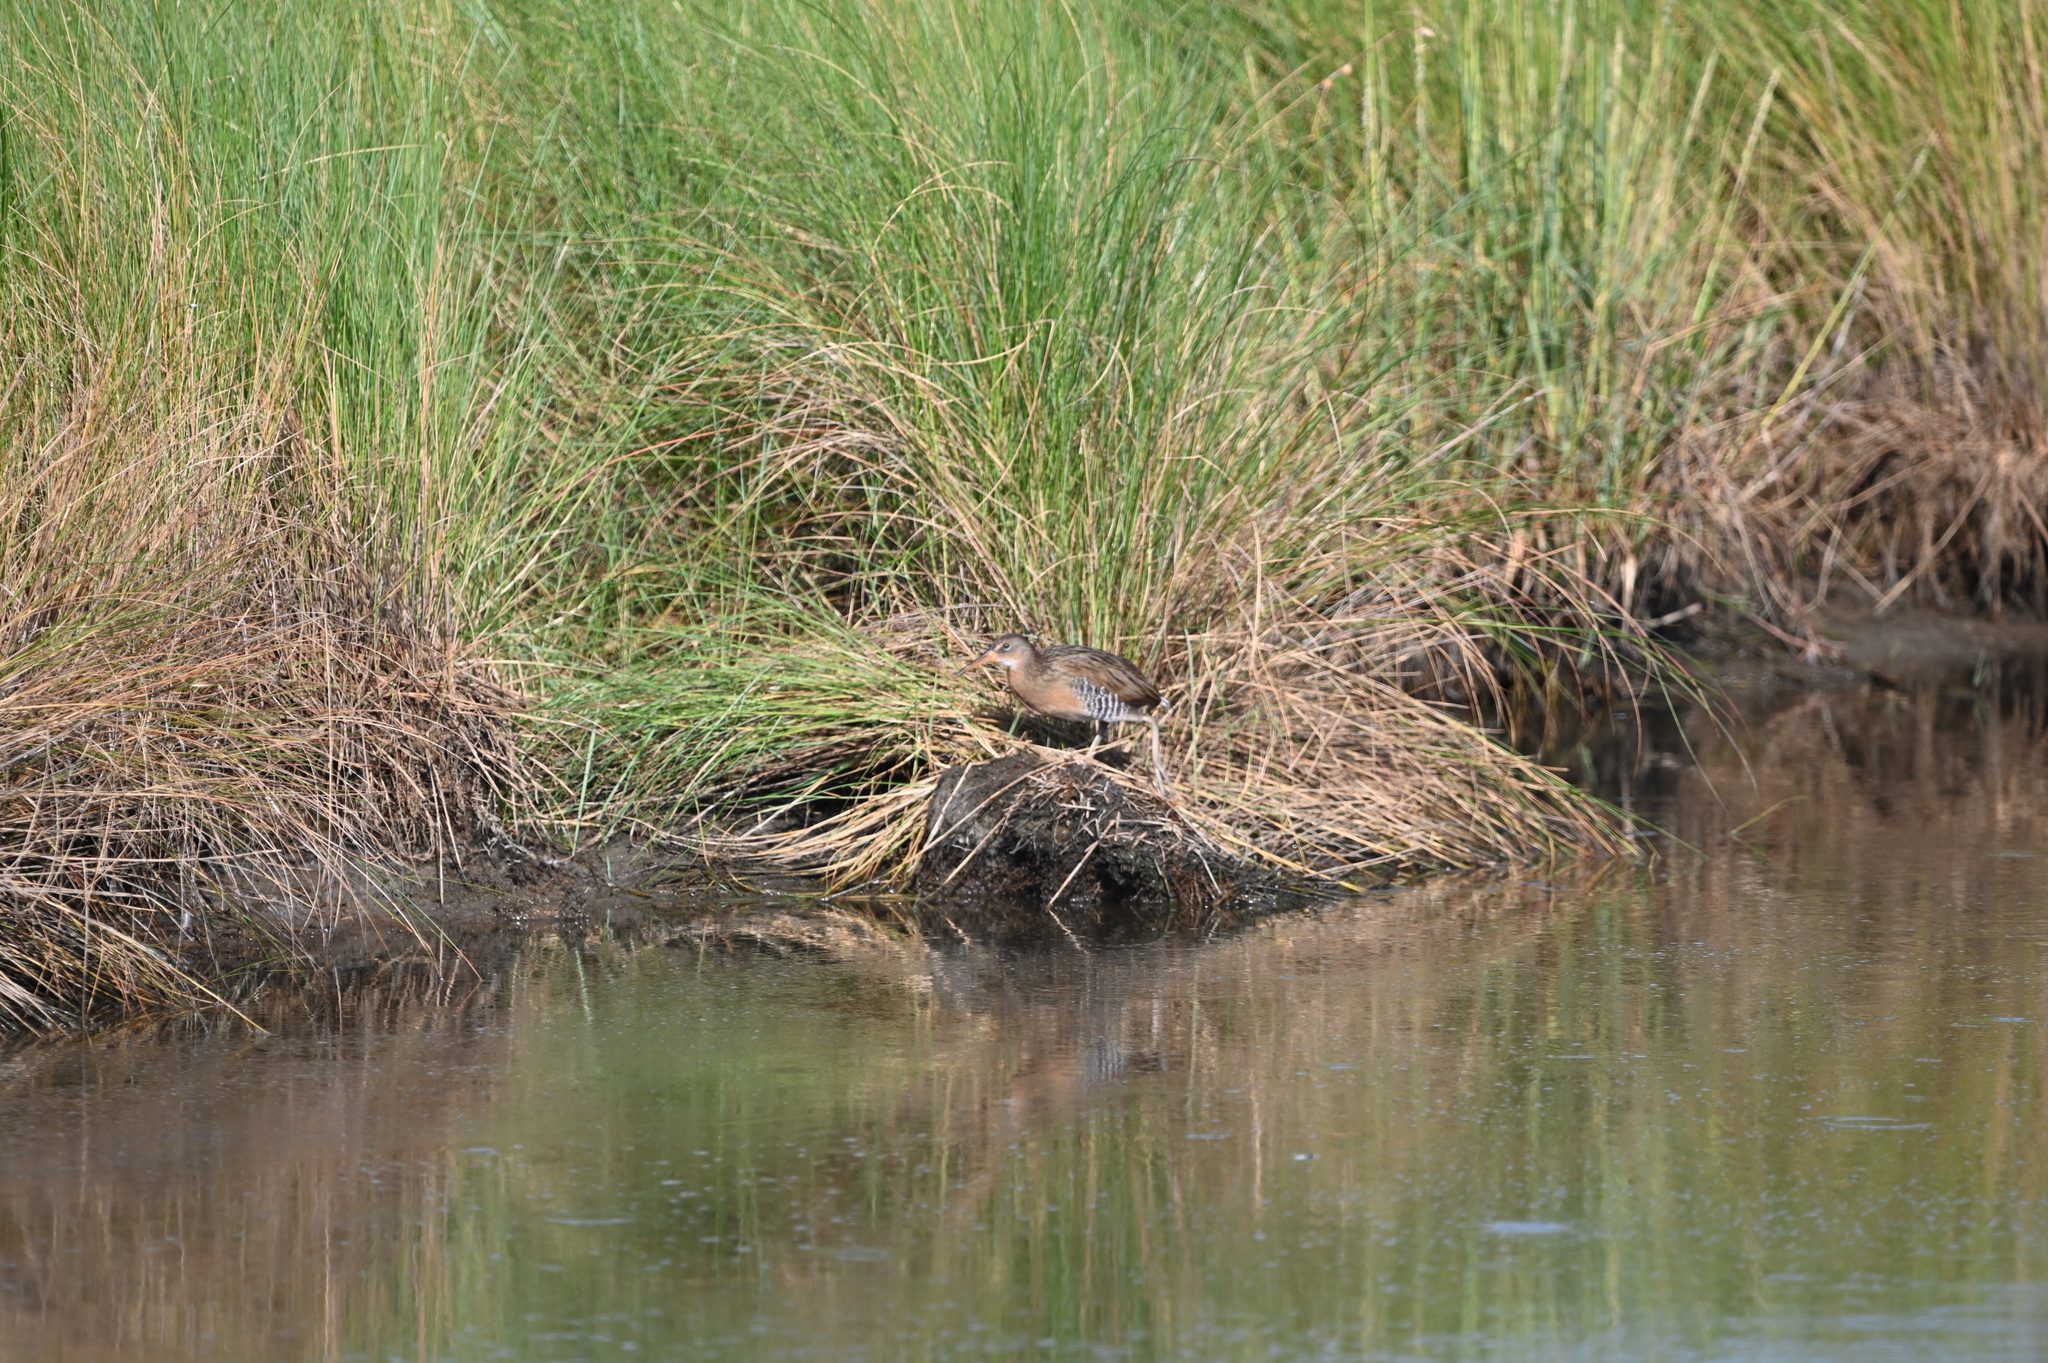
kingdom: Animalia
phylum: Chordata
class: Aves
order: Gruiformes
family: Rallidae
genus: Rallus
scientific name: Rallus crepitans
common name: Clapper rail
